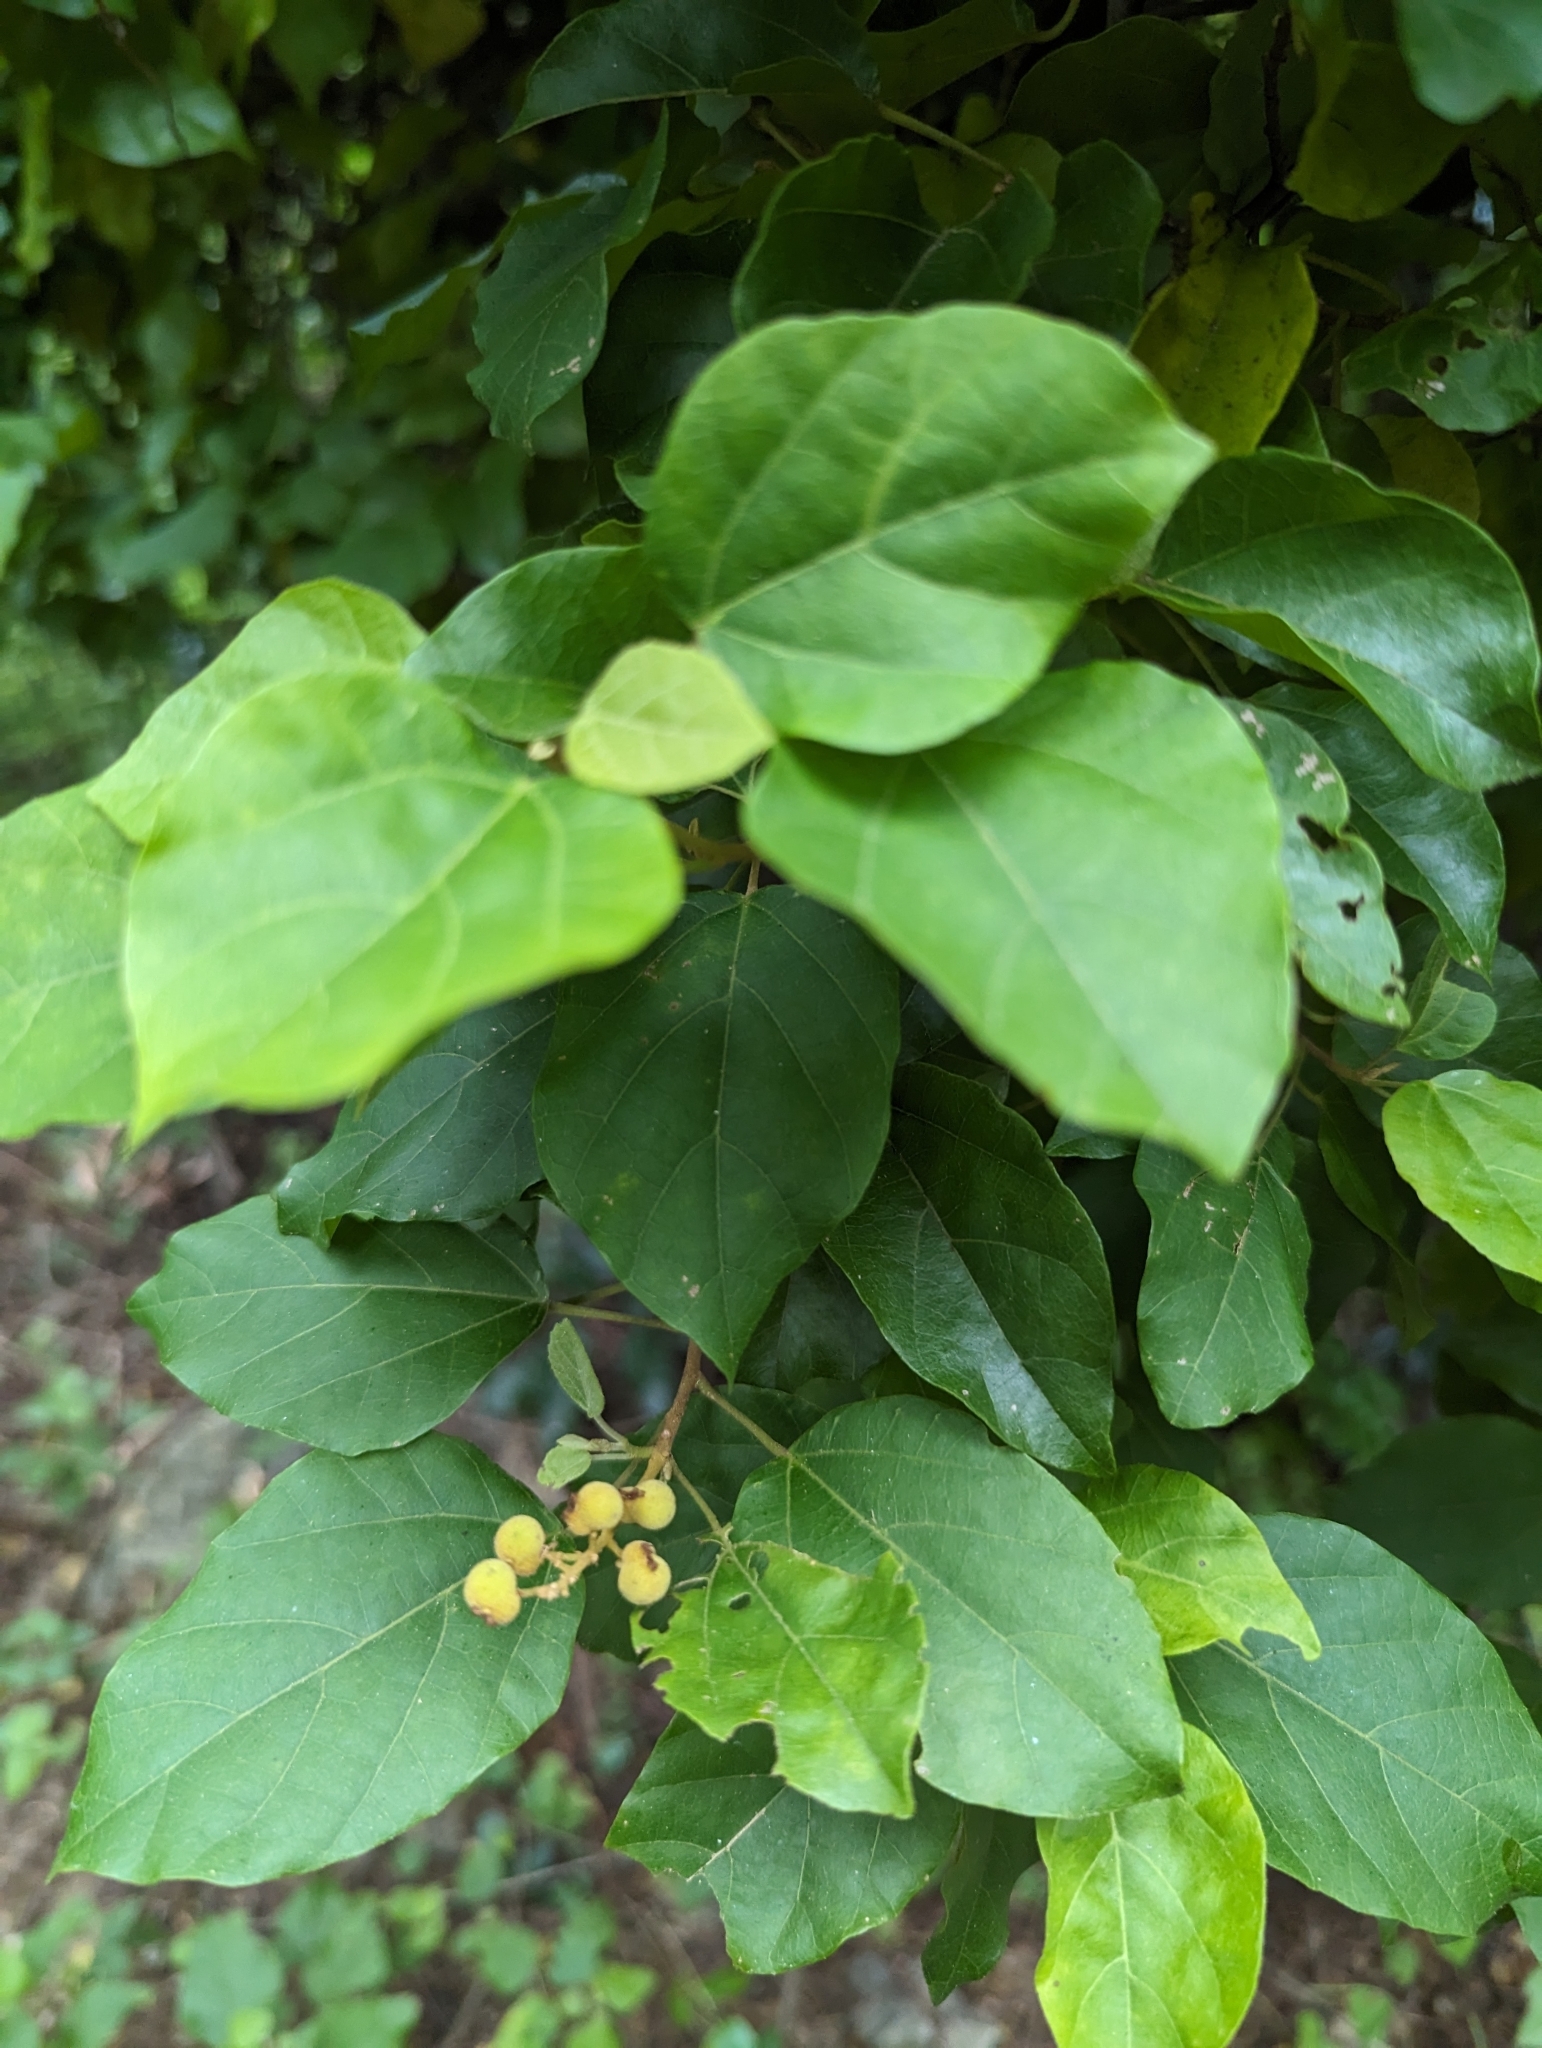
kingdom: Plantae
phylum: Tracheophyta
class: Magnoliopsida
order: Malpighiales
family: Euphorbiaceae
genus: Mallotus
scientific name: Mallotus repandus
